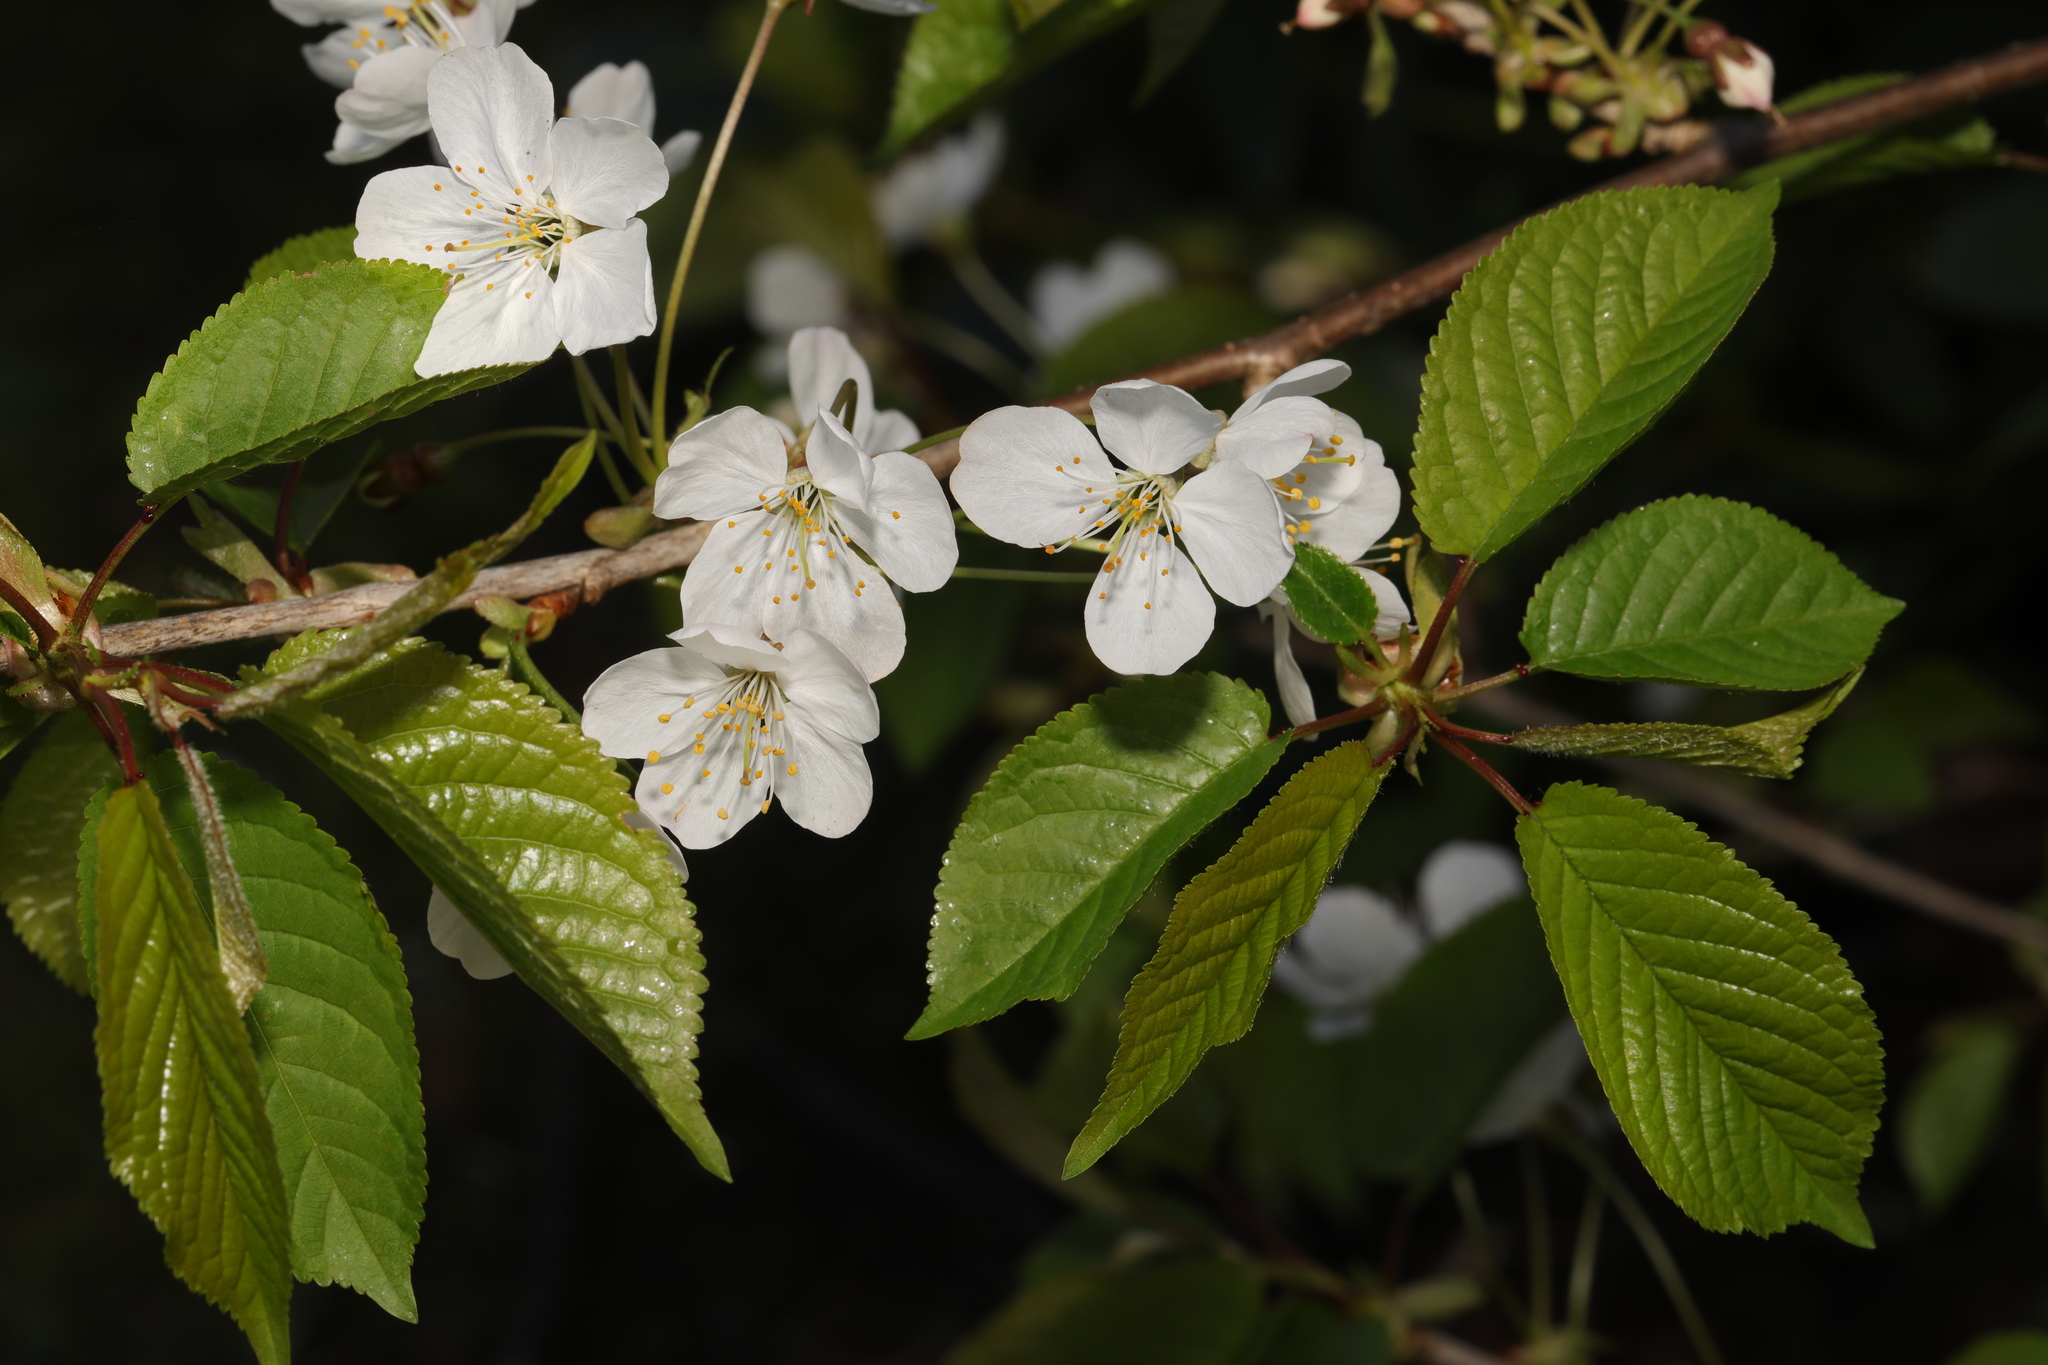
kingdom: Plantae
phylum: Tracheophyta
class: Magnoliopsida
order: Rosales
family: Rosaceae
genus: Prunus
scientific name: Prunus avium
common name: Sweet cherry
